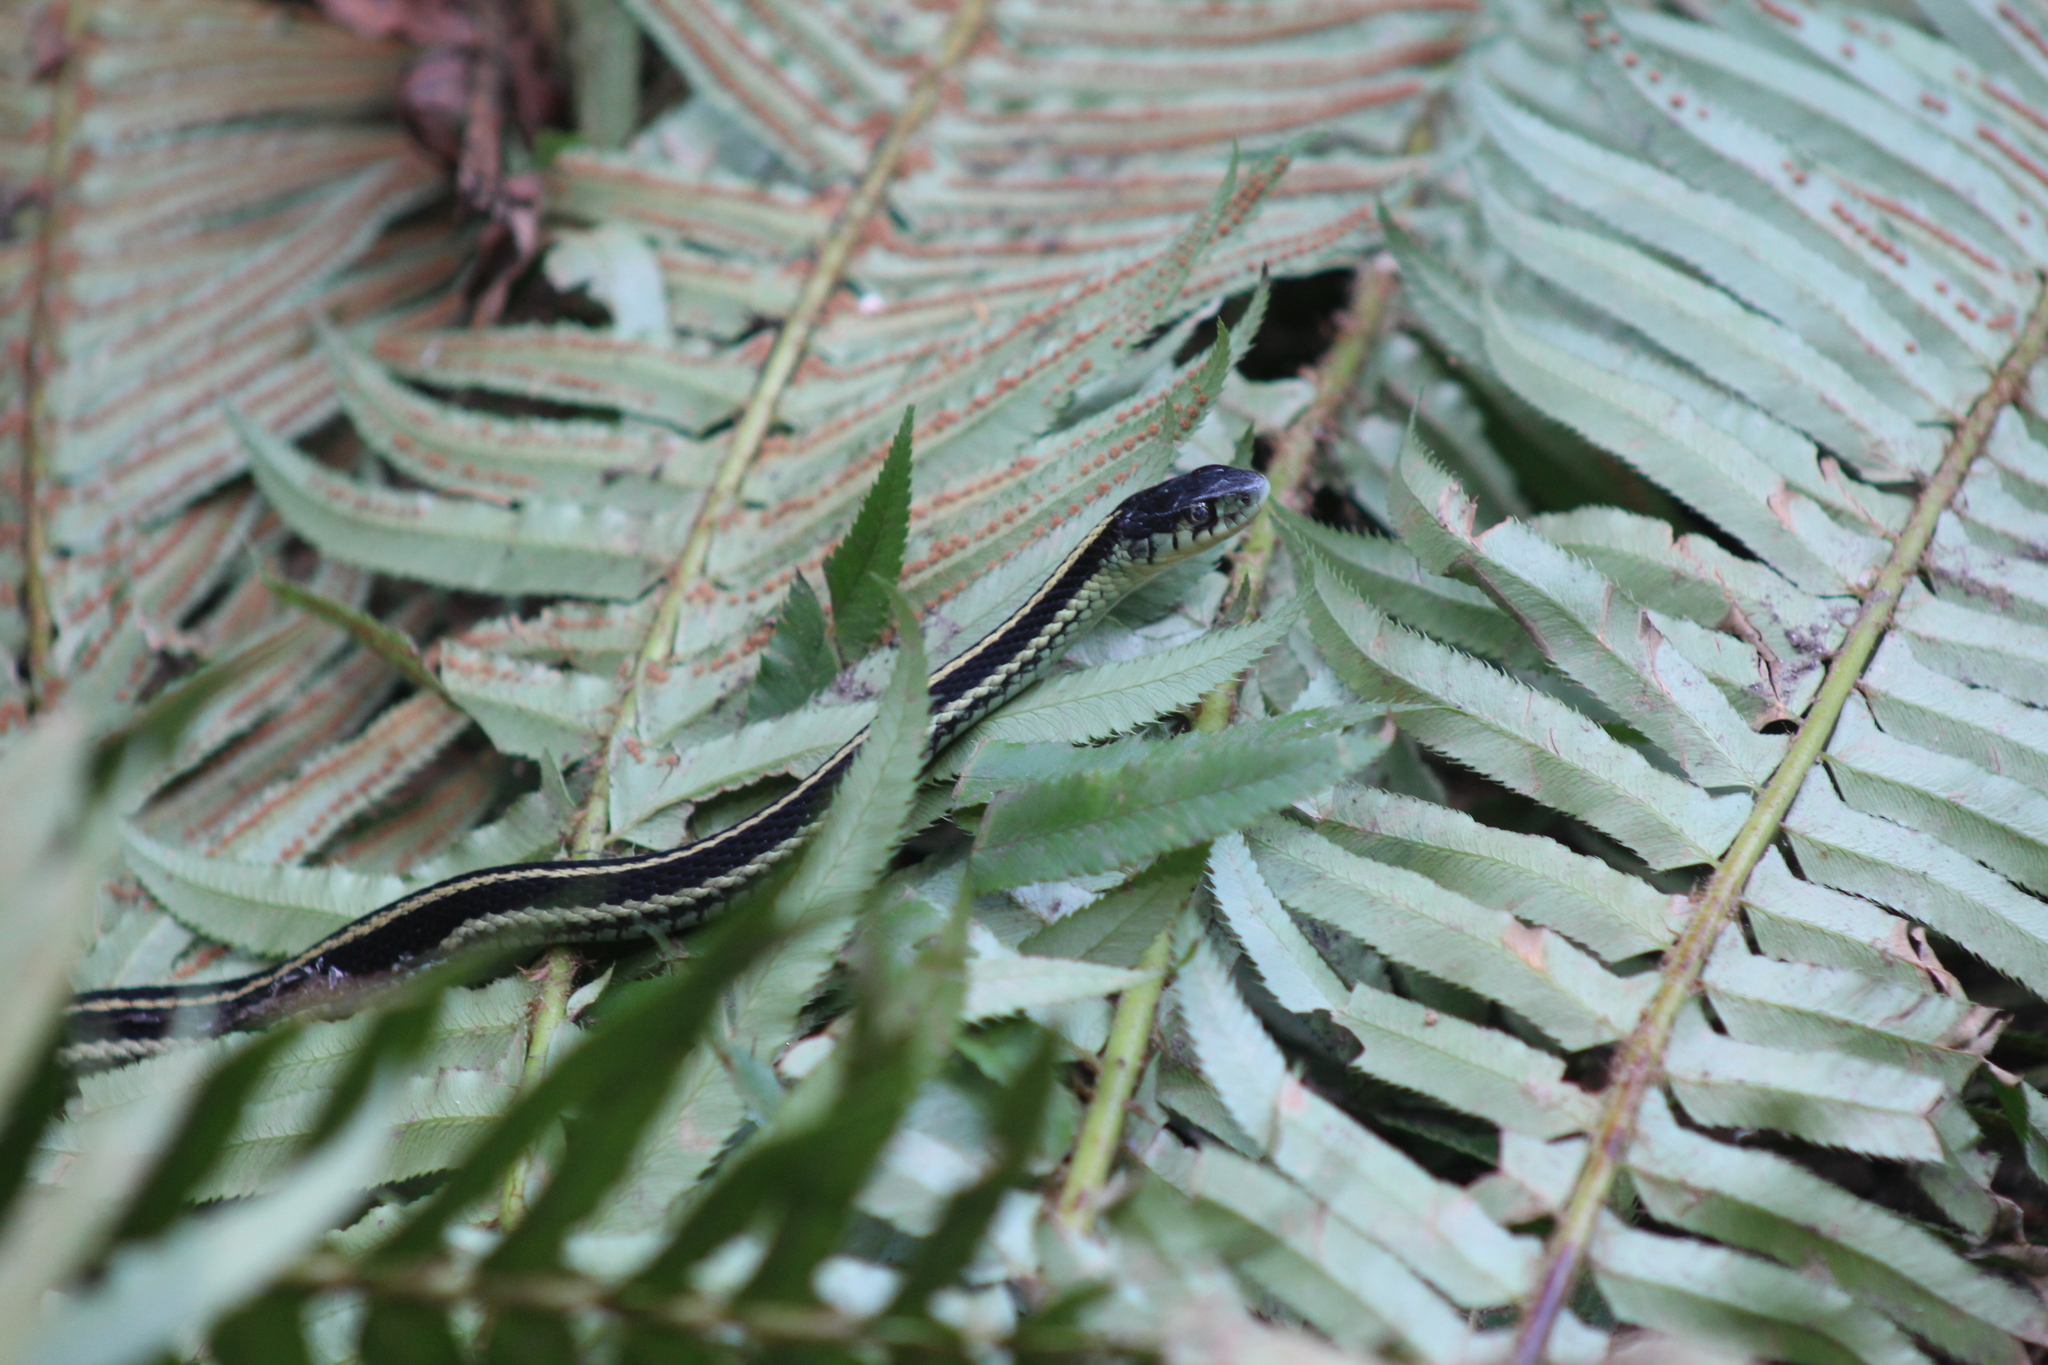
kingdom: Animalia
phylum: Chordata
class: Squamata
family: Colubridae
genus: Thamnophis
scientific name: Thamnophis sirtalis
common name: Common garter snake
